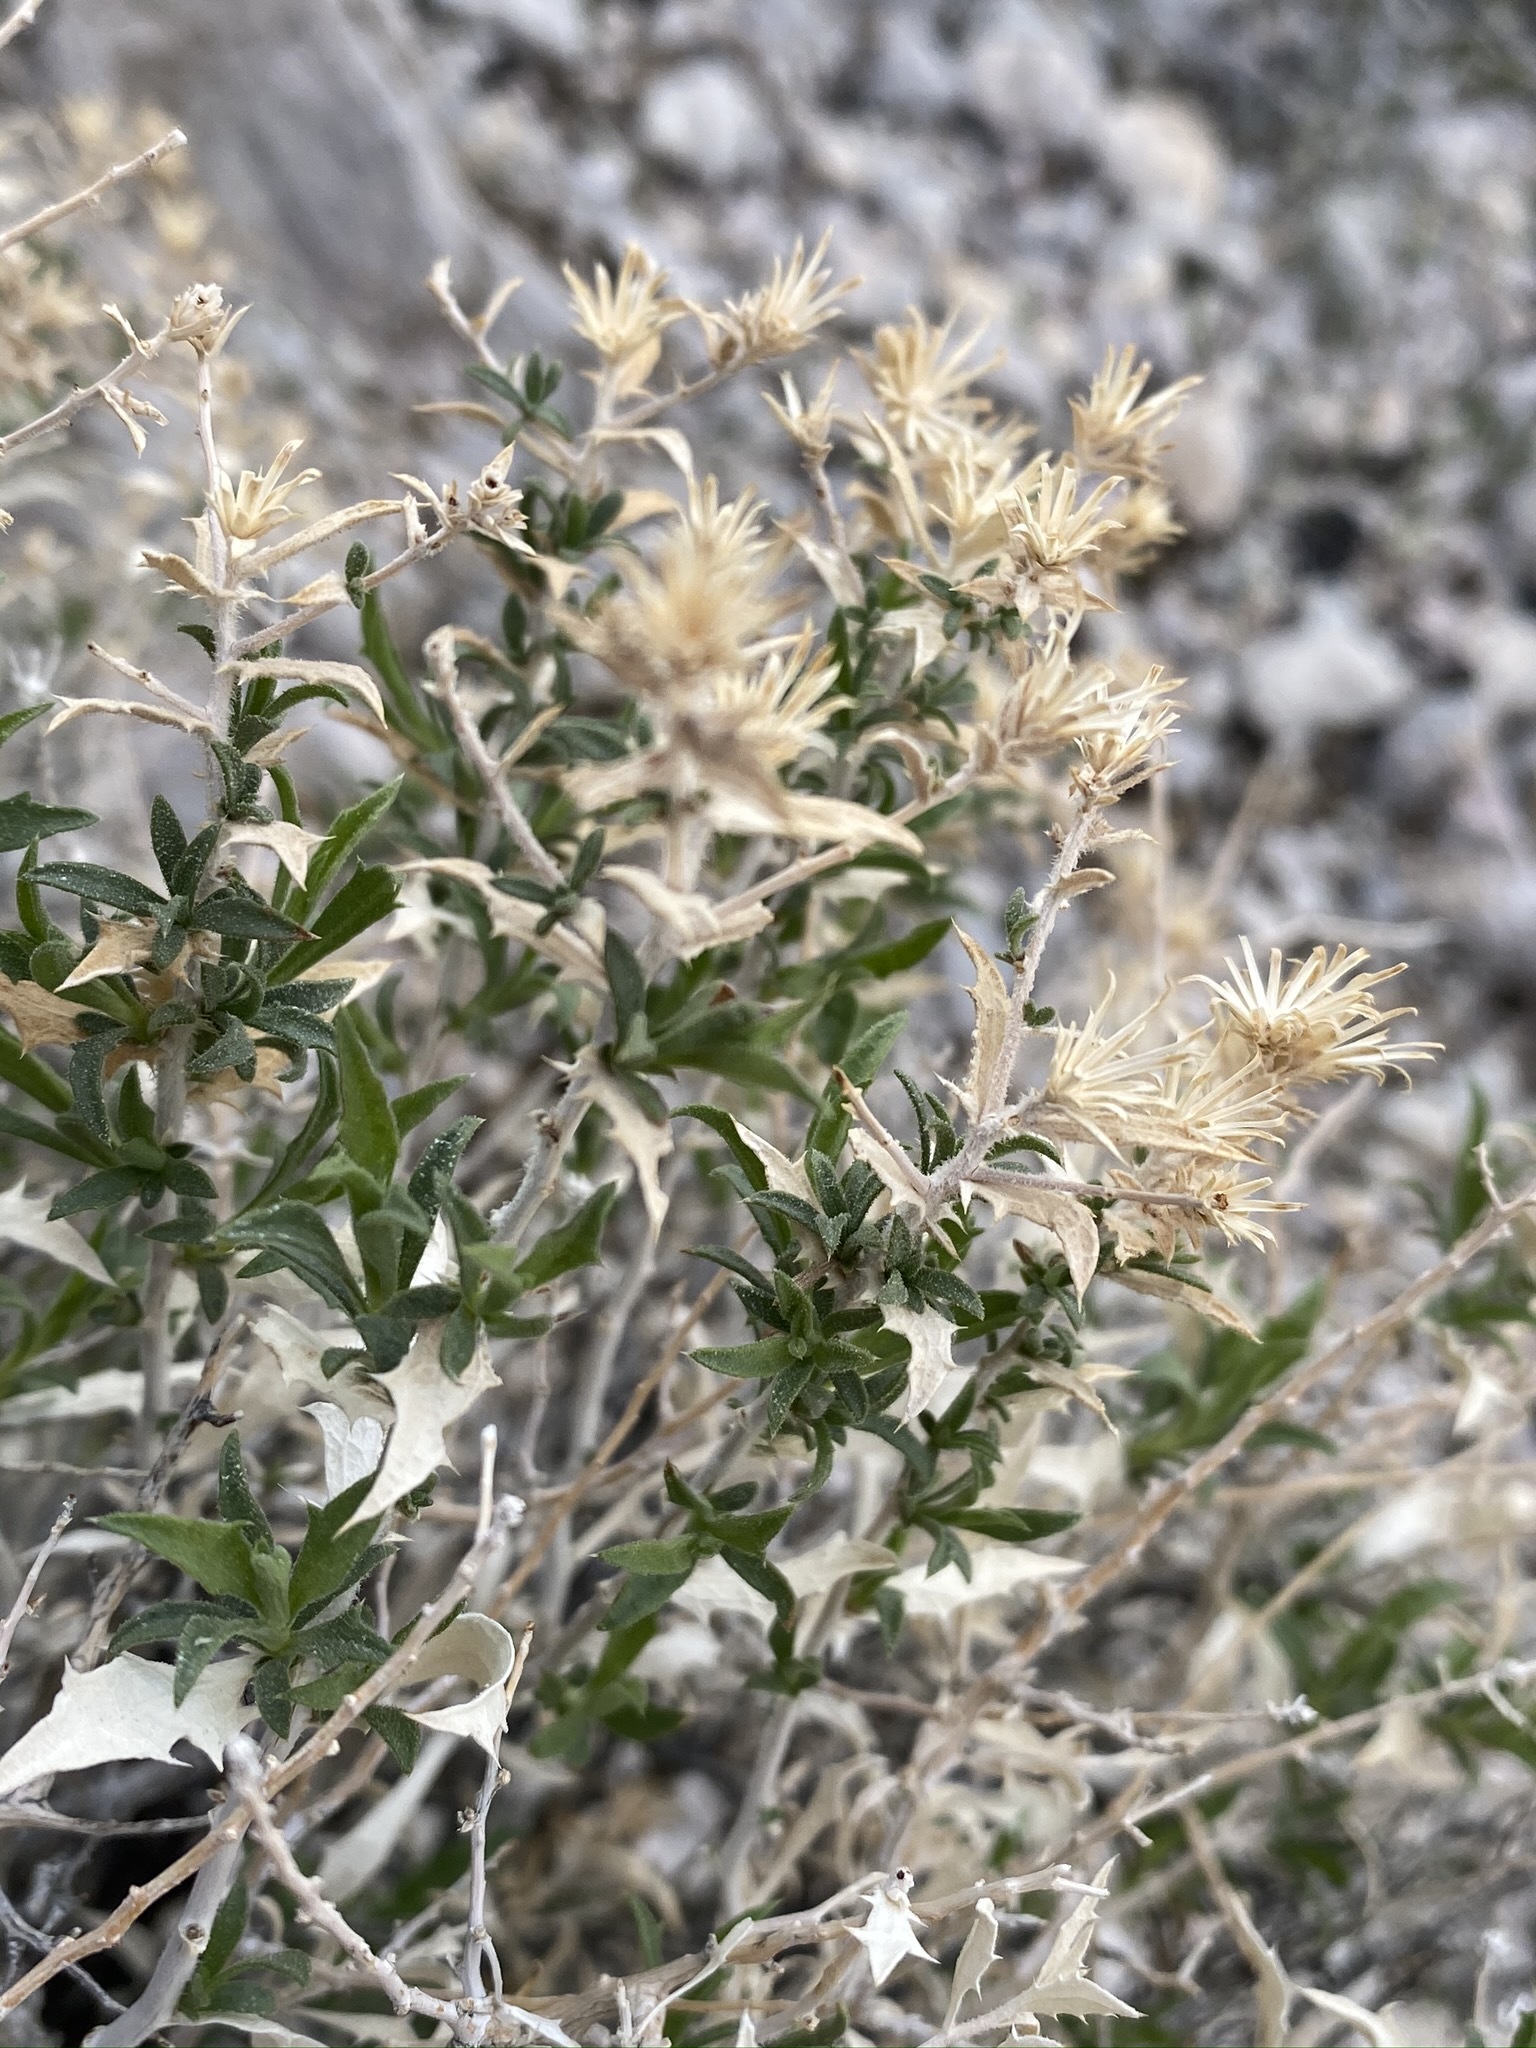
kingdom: Plantae
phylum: Tracheophyta
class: Magnoliopsida
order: Asterales
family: Asteraceae
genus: Adiaphila
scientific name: Adiaphila brickellioides
